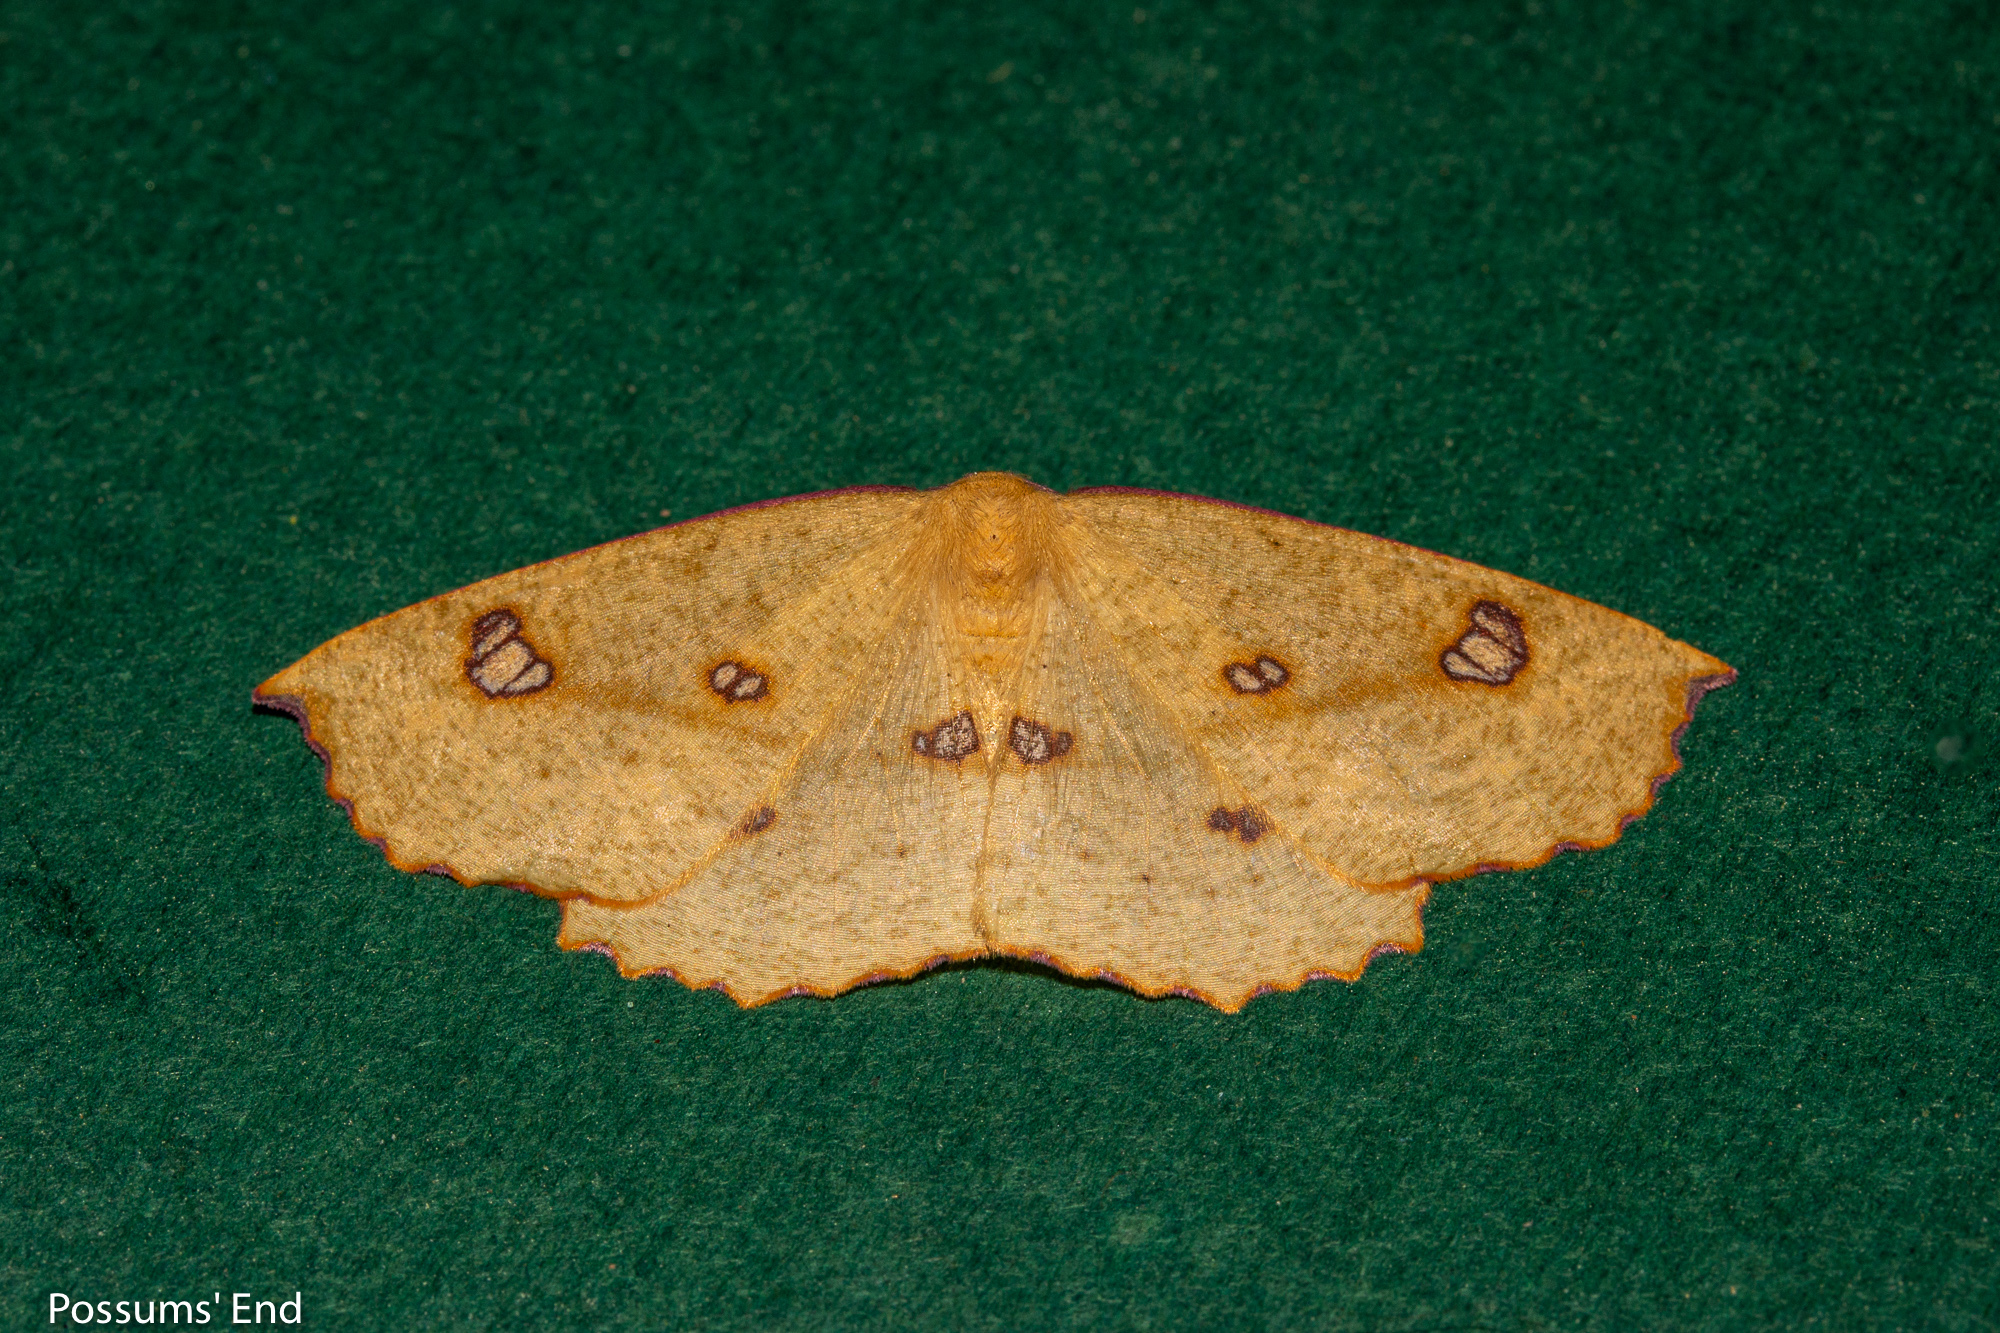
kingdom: Animalia
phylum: Arthropoda
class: Insecta
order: Lepidoptera
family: Geometridae
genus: Xyridacma
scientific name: Xyridacma alectoraria
